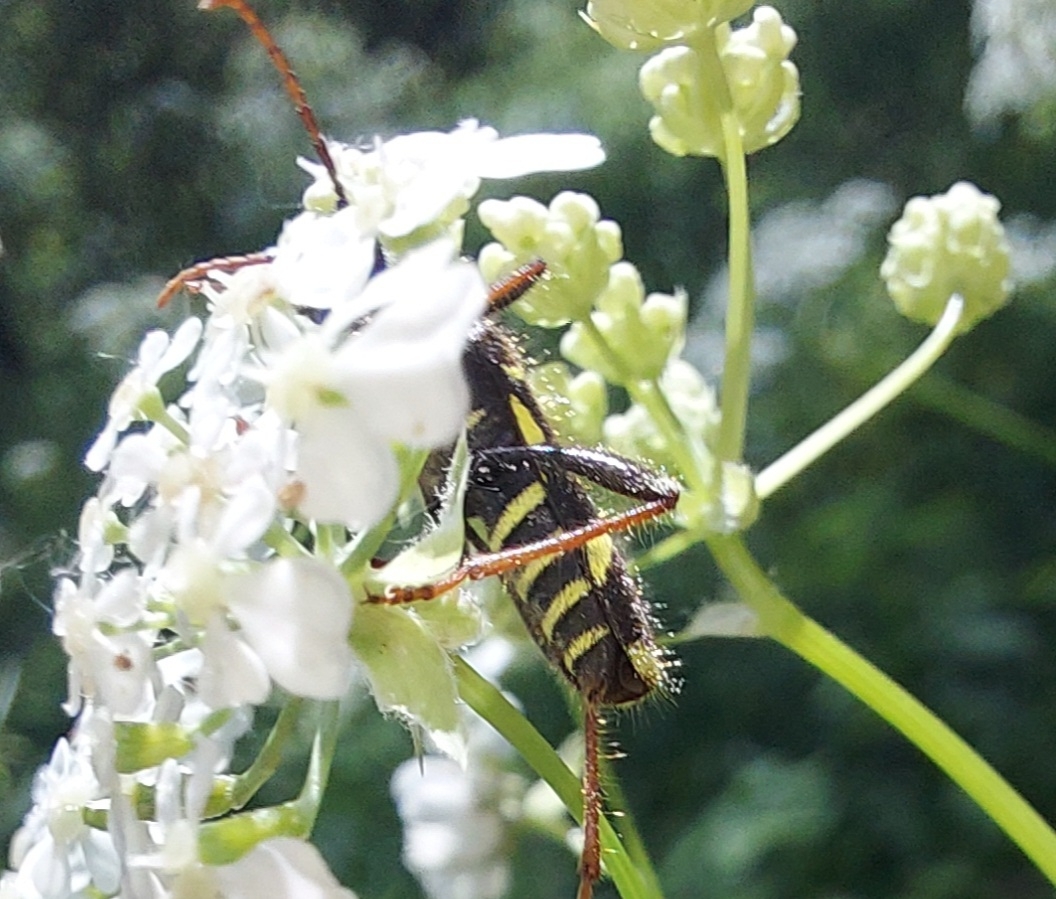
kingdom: Animalia
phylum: Arthropoda
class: Insecta
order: Coleoptera
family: Cerambycidae
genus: Cyrtoclytus
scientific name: Cyrtoclytus capra
